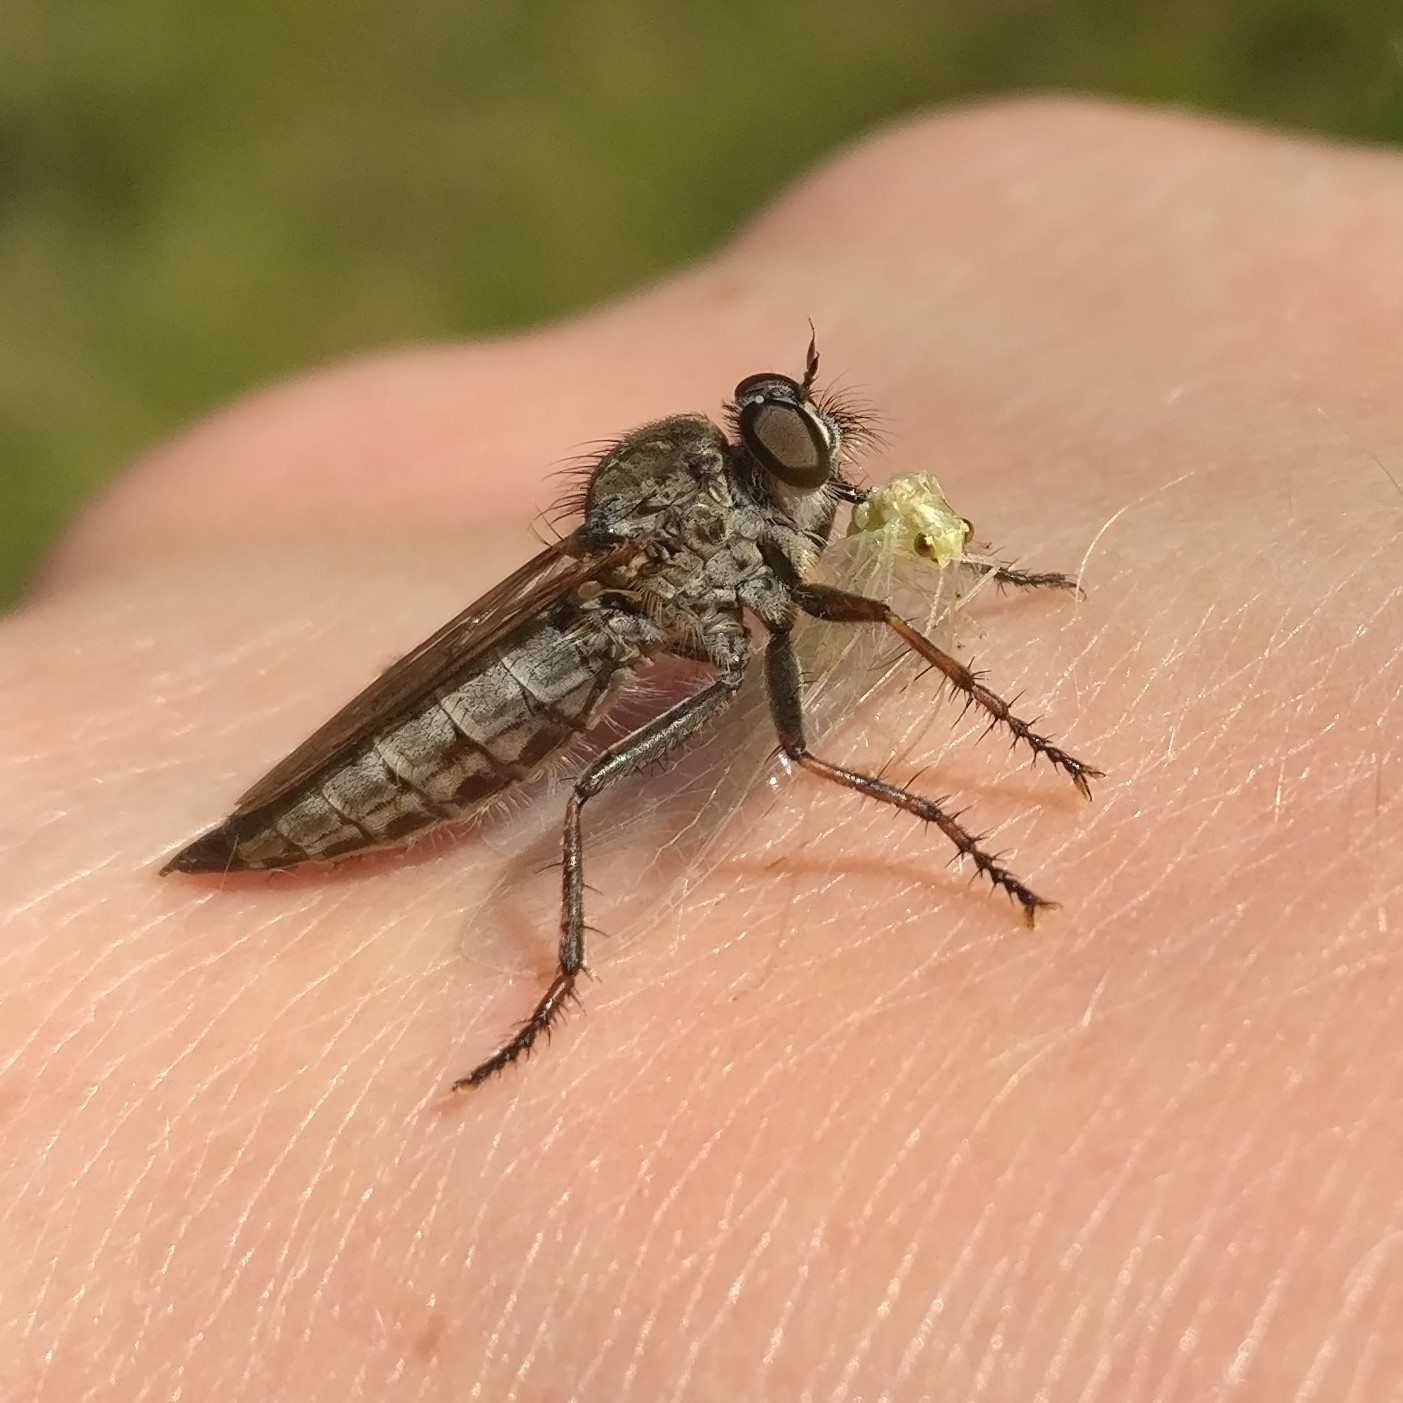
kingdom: Animalia
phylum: Arthropoda
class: Insecta
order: Diptera
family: Asilidae
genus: Machimus
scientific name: Machimus atricapillus
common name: Kite-tailed robberfly
